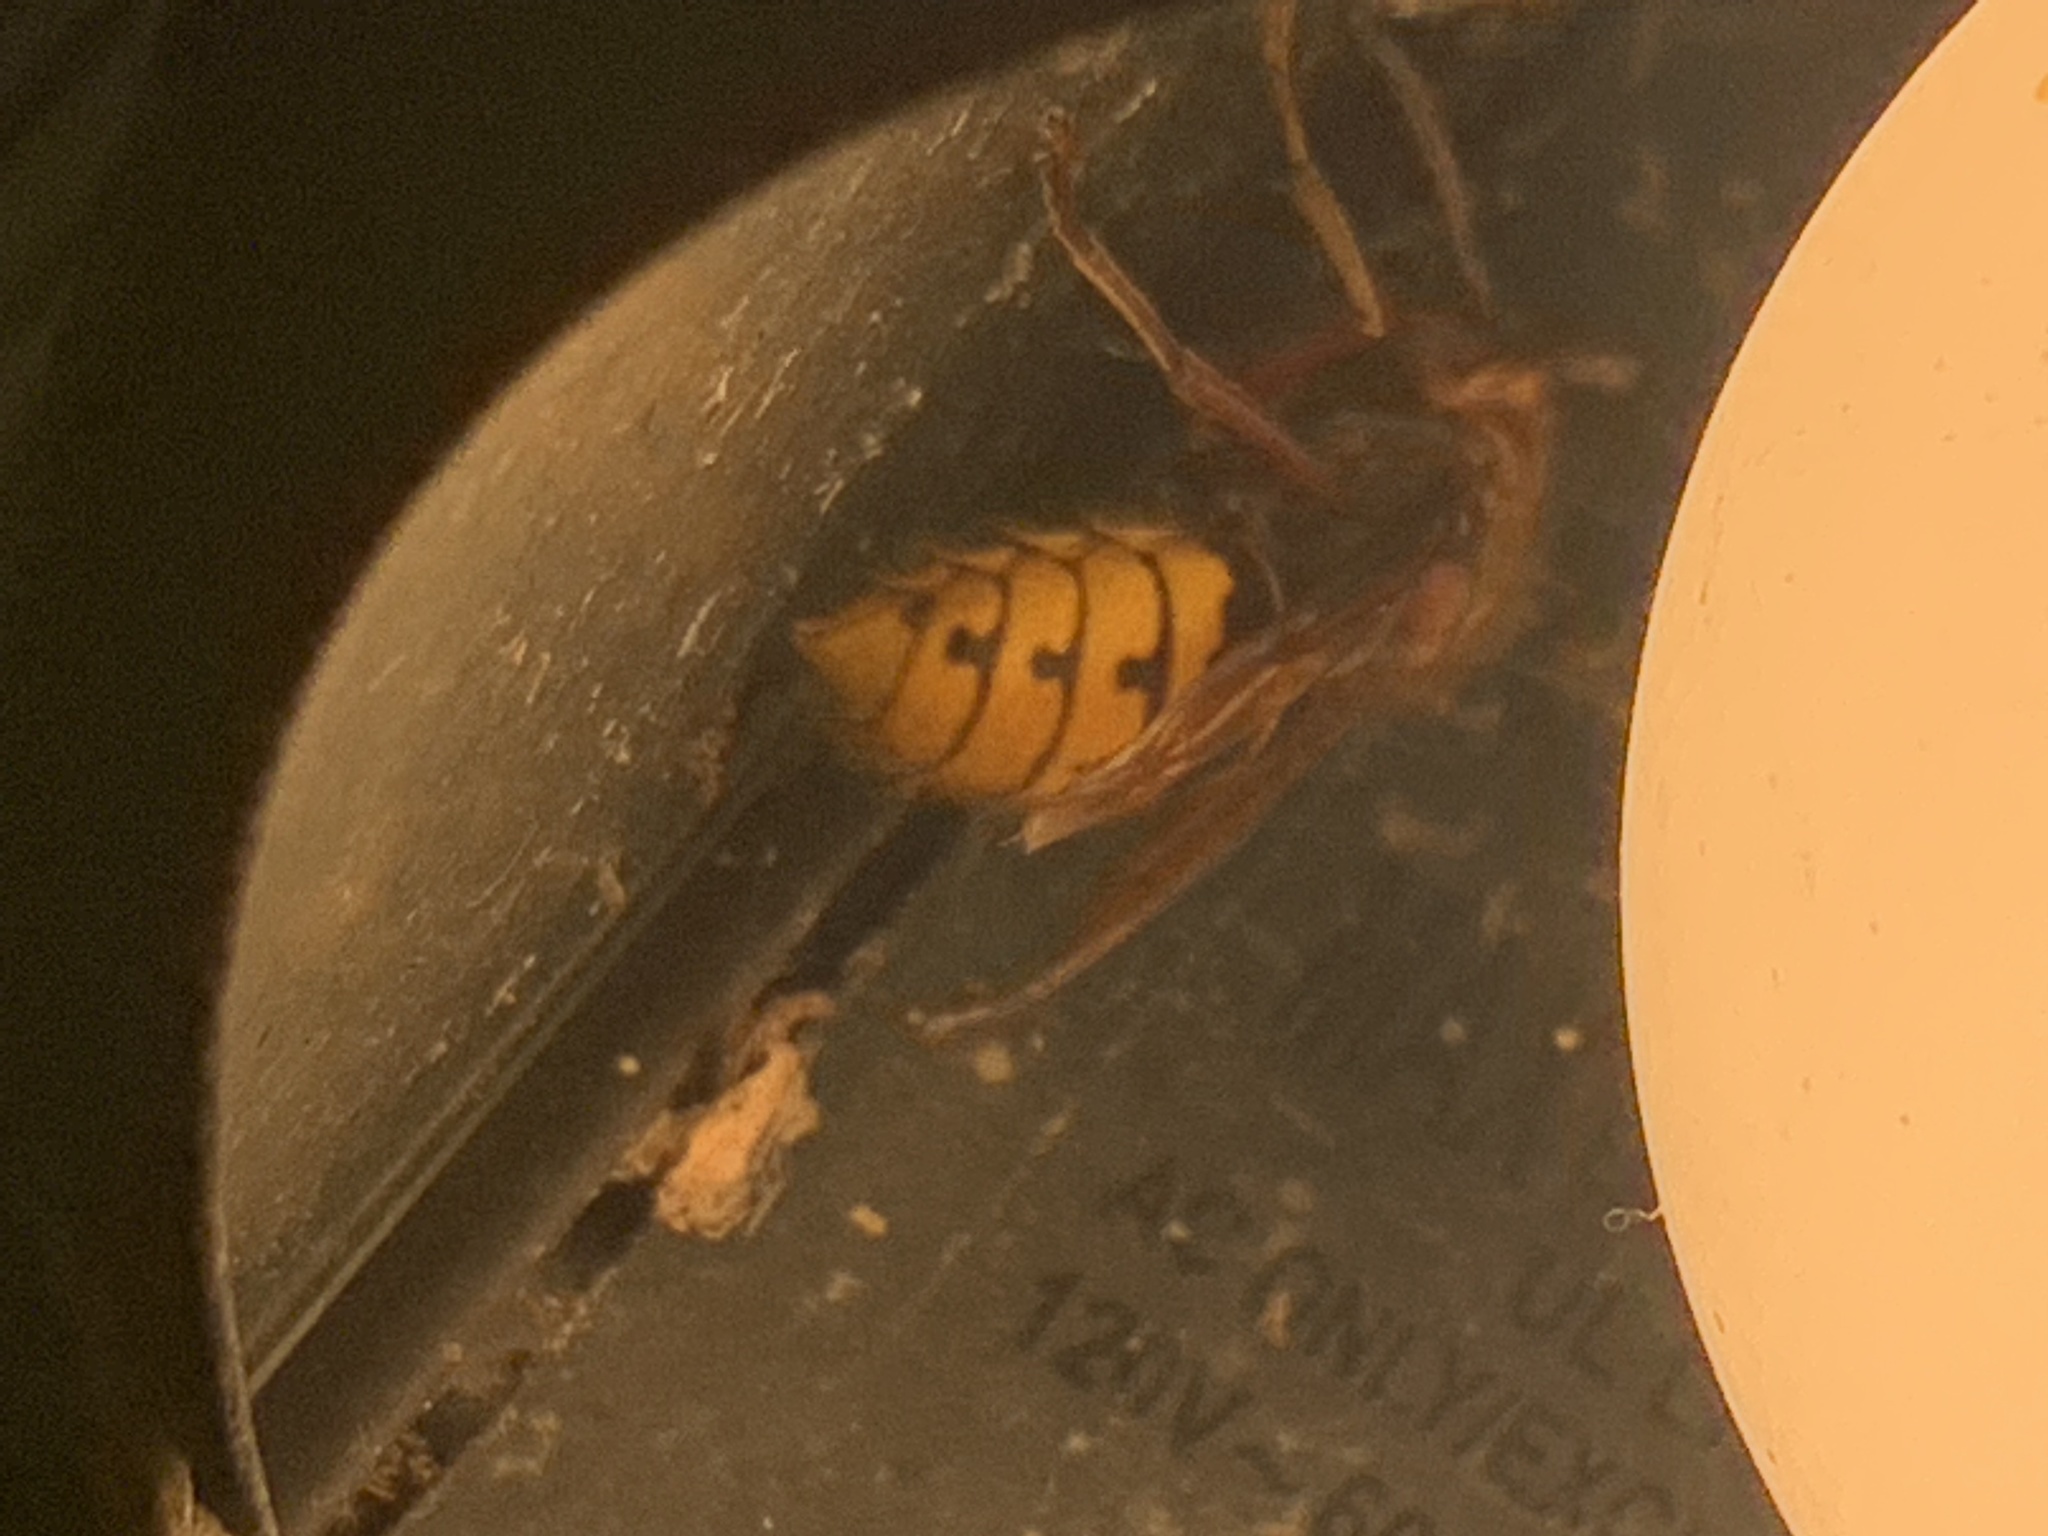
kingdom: Animalia
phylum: Arthropoda
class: Insecta
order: Hymenoptera
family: Vespidae
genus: Vespa
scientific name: Vespa crabro
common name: Hornet
